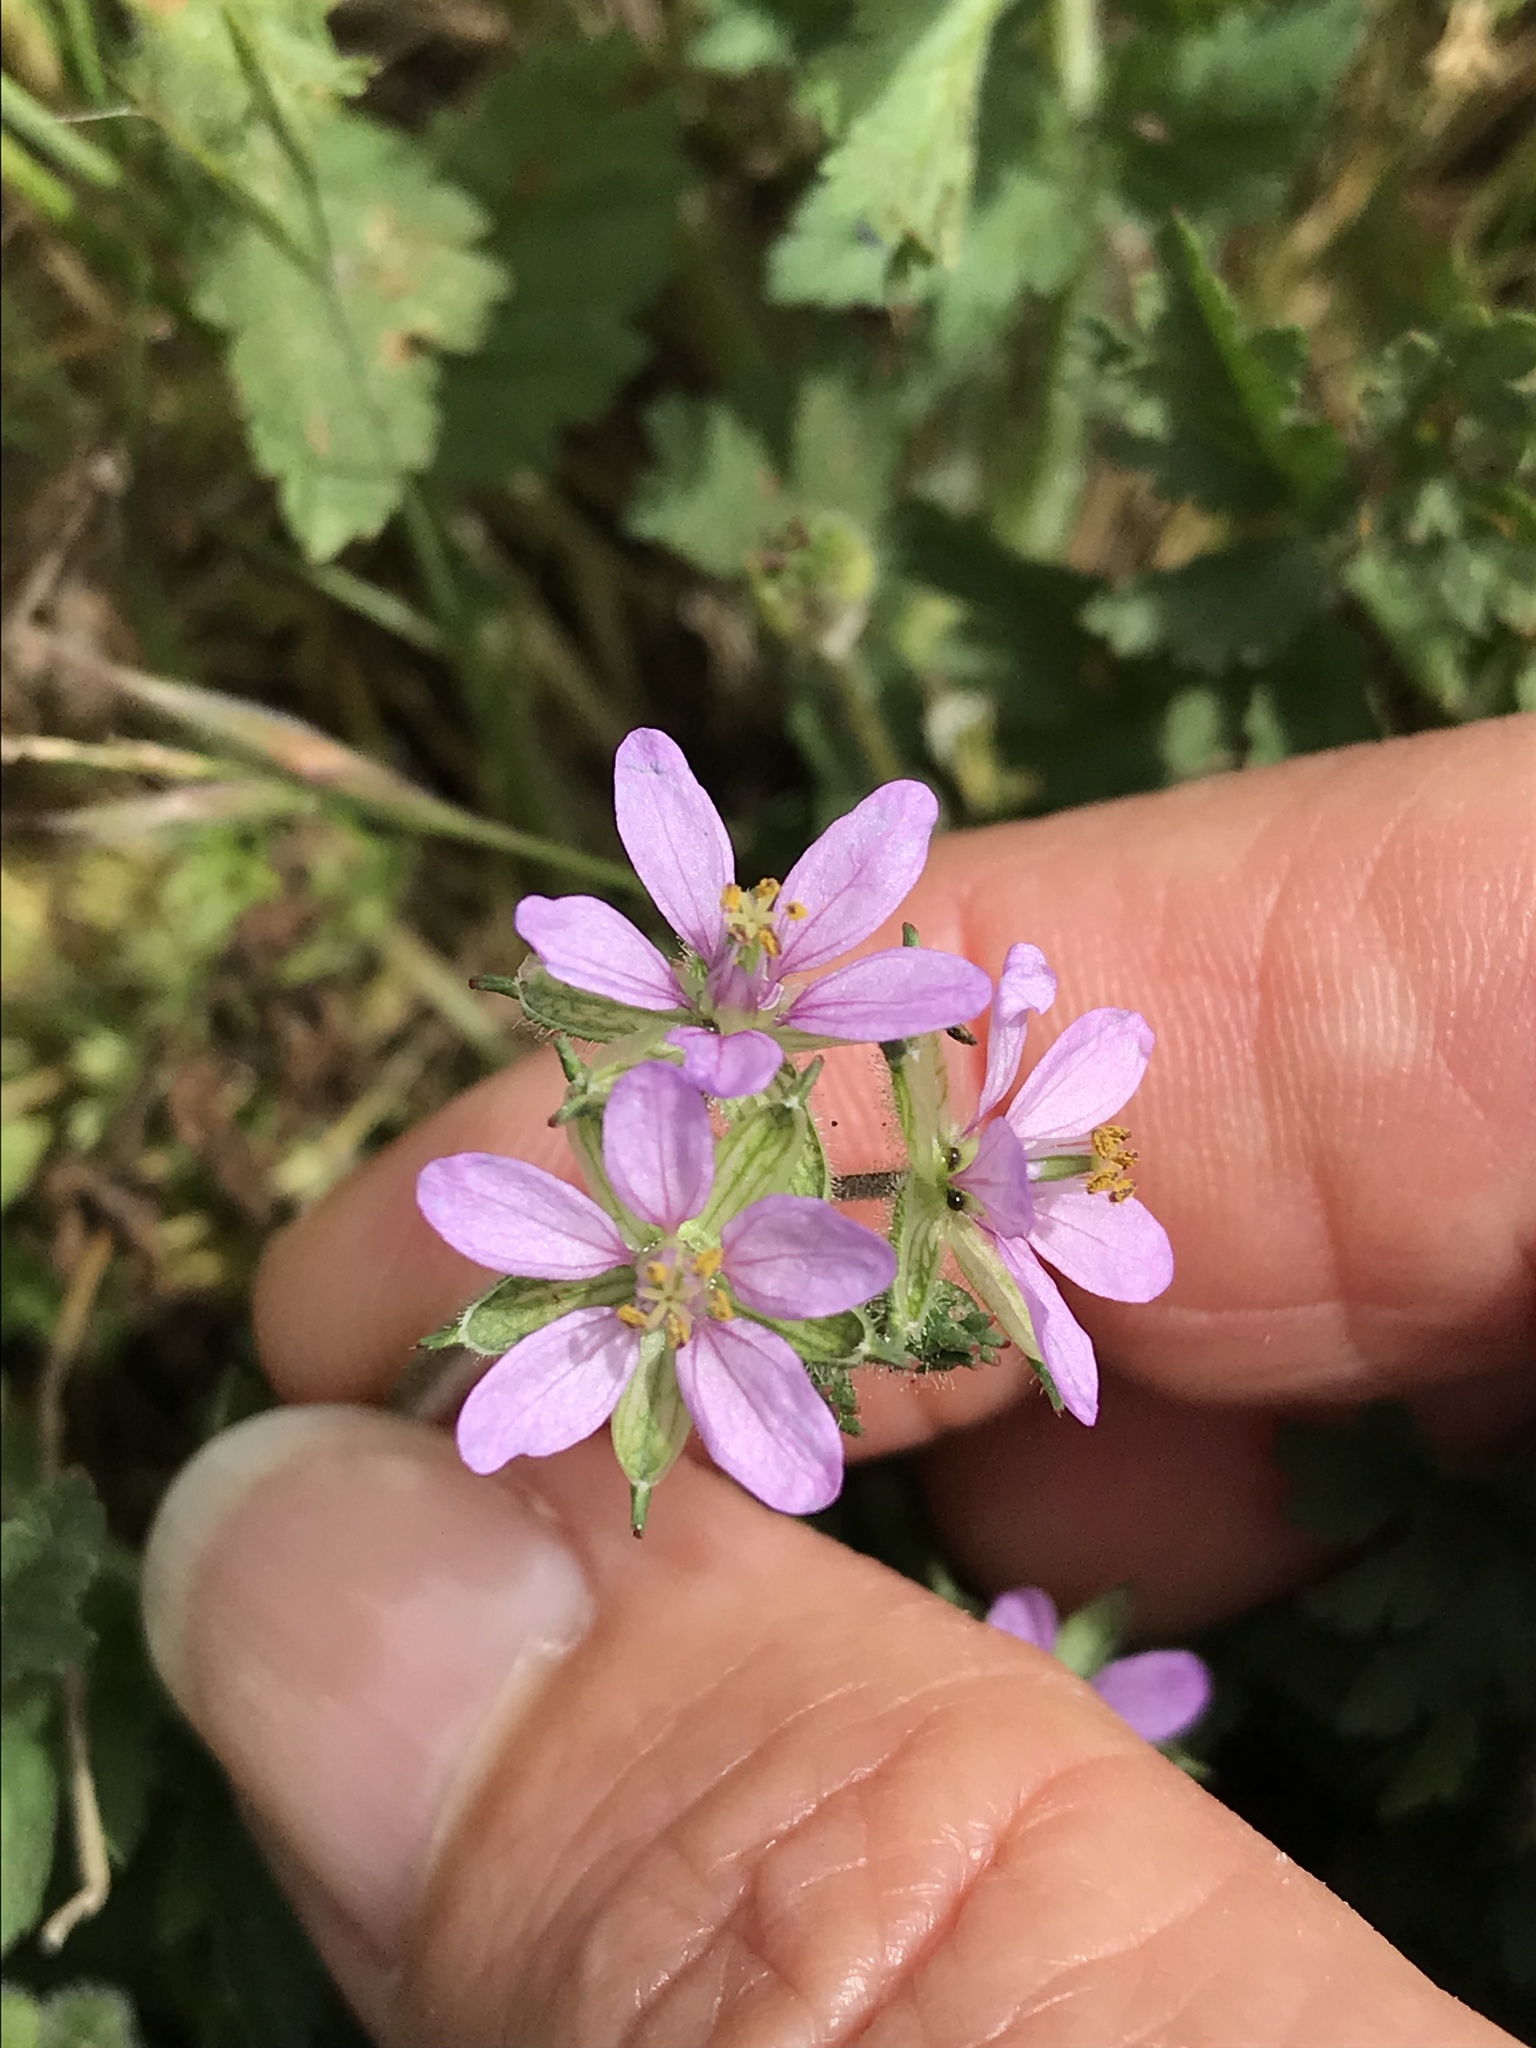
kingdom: Plantae
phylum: Tracheophyta
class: Magnoliopsida
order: Geraniales
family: Geraniaceae
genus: Erodium
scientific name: Erodium cicutarium
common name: Common stork's-bill
